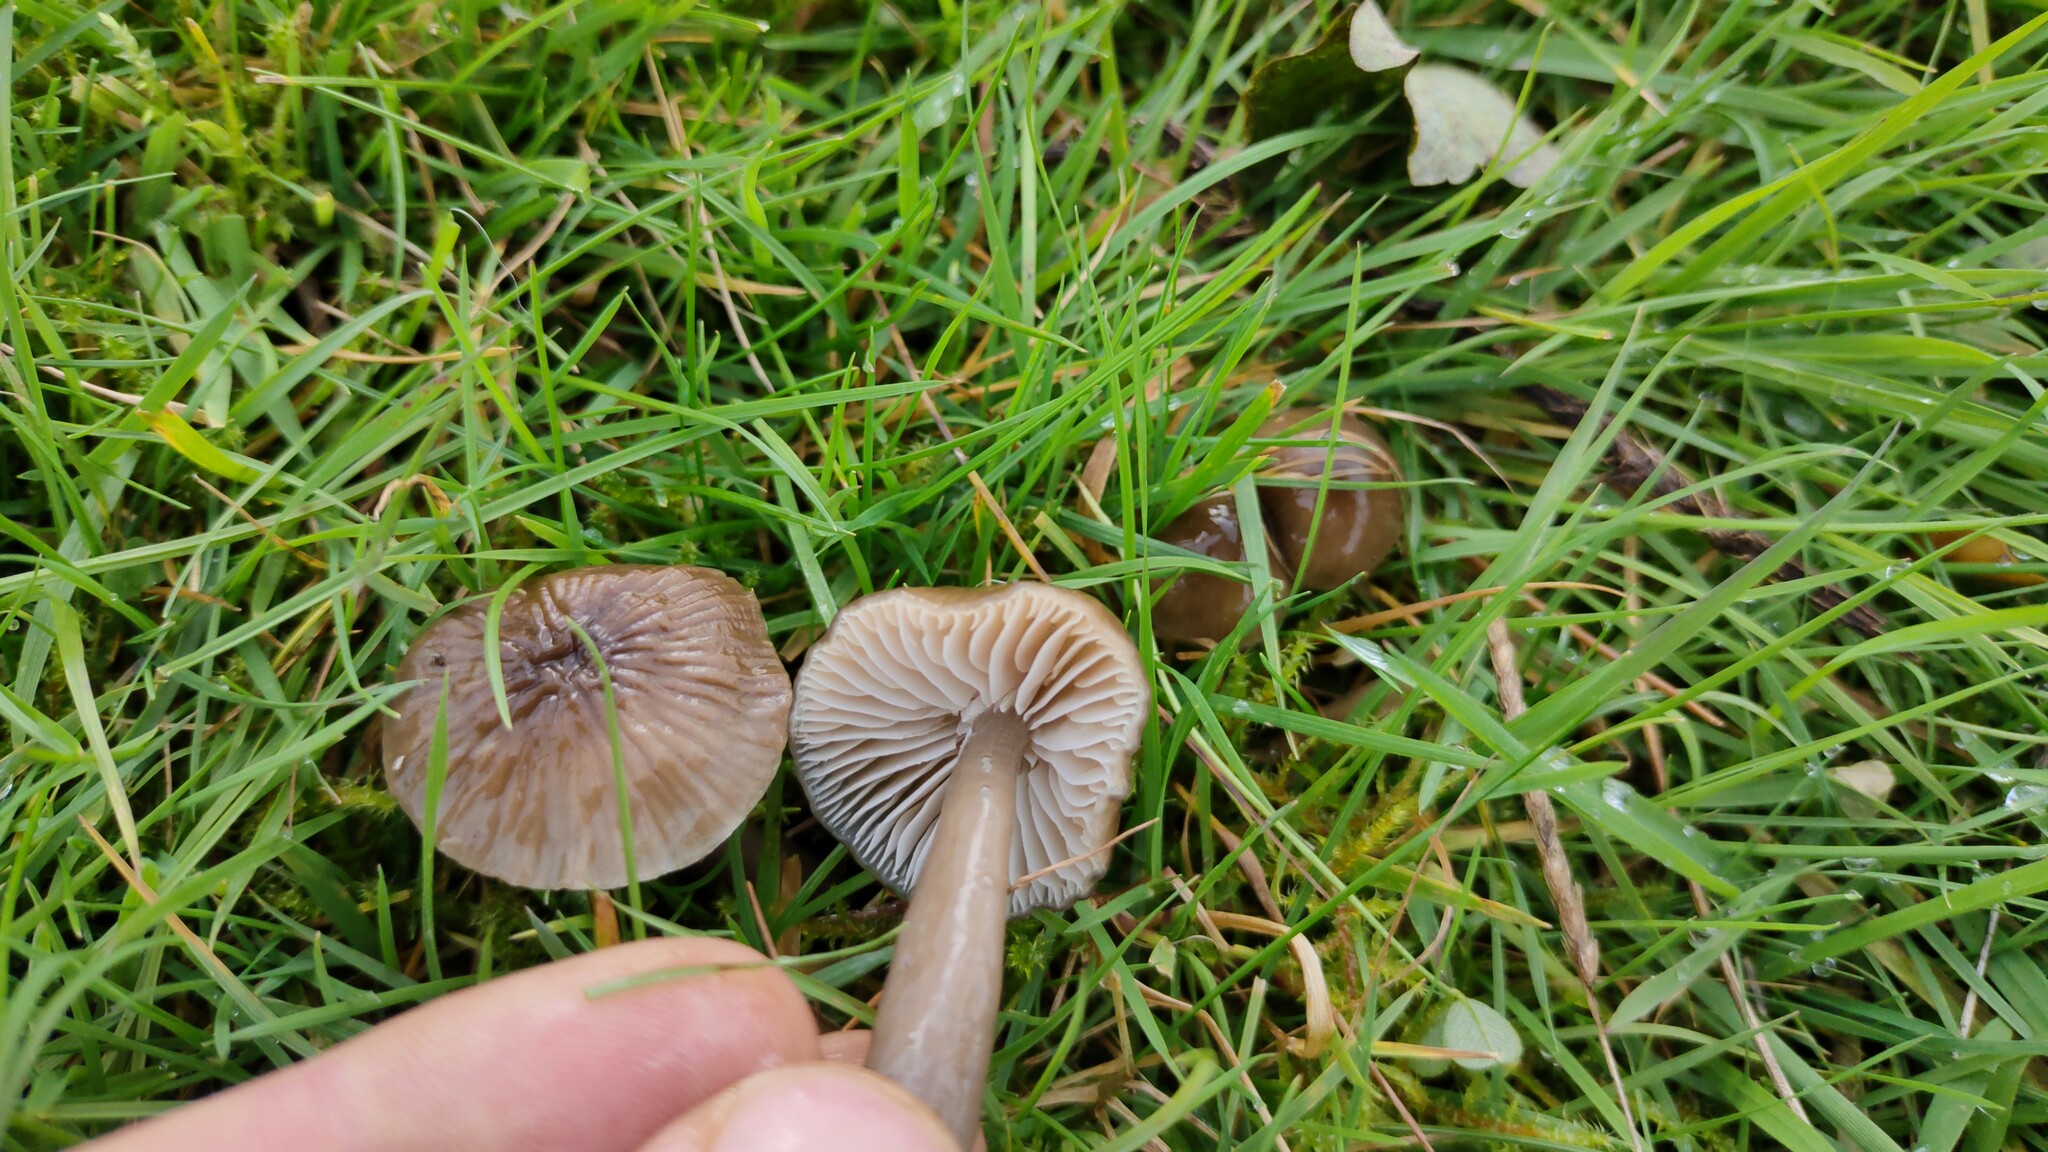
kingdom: Fungi
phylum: Basidiomycota
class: Agaricomycetes
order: Agaricales
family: Hygrophoraceae
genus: Gliophorus
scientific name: Gliophorus irrigatus
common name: Slimy waxcap
